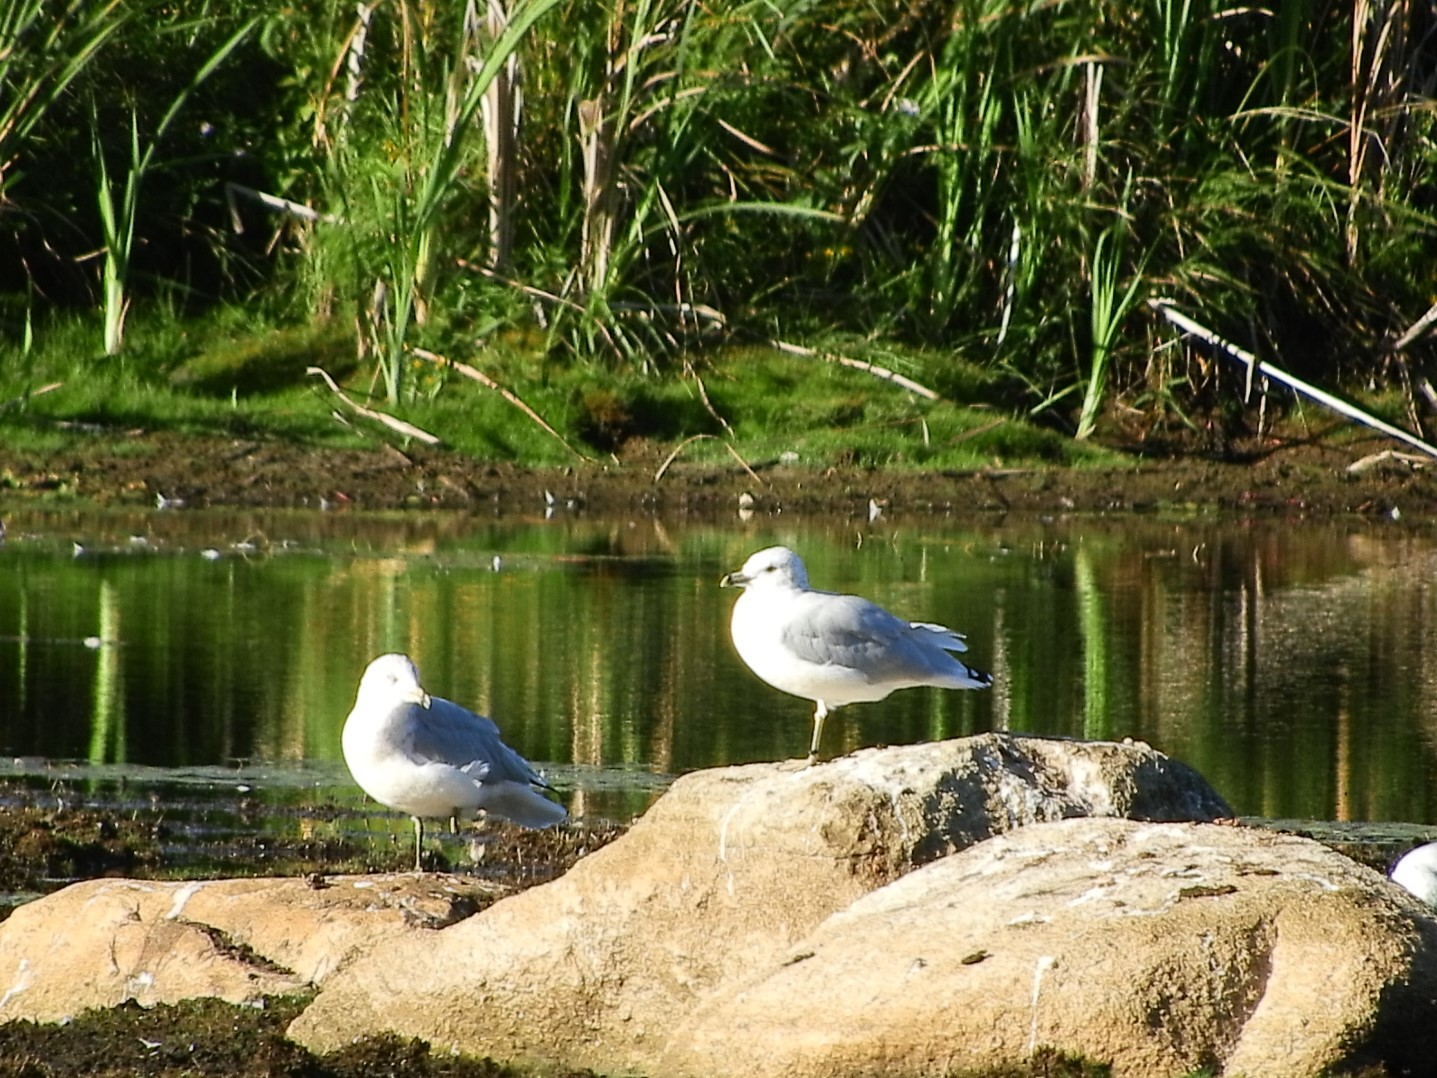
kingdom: Animalia
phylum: Chordata
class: Aves
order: Charadriiformes
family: Laridae
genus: Larus
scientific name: Larus delawarensis
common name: Ring-billed gull
